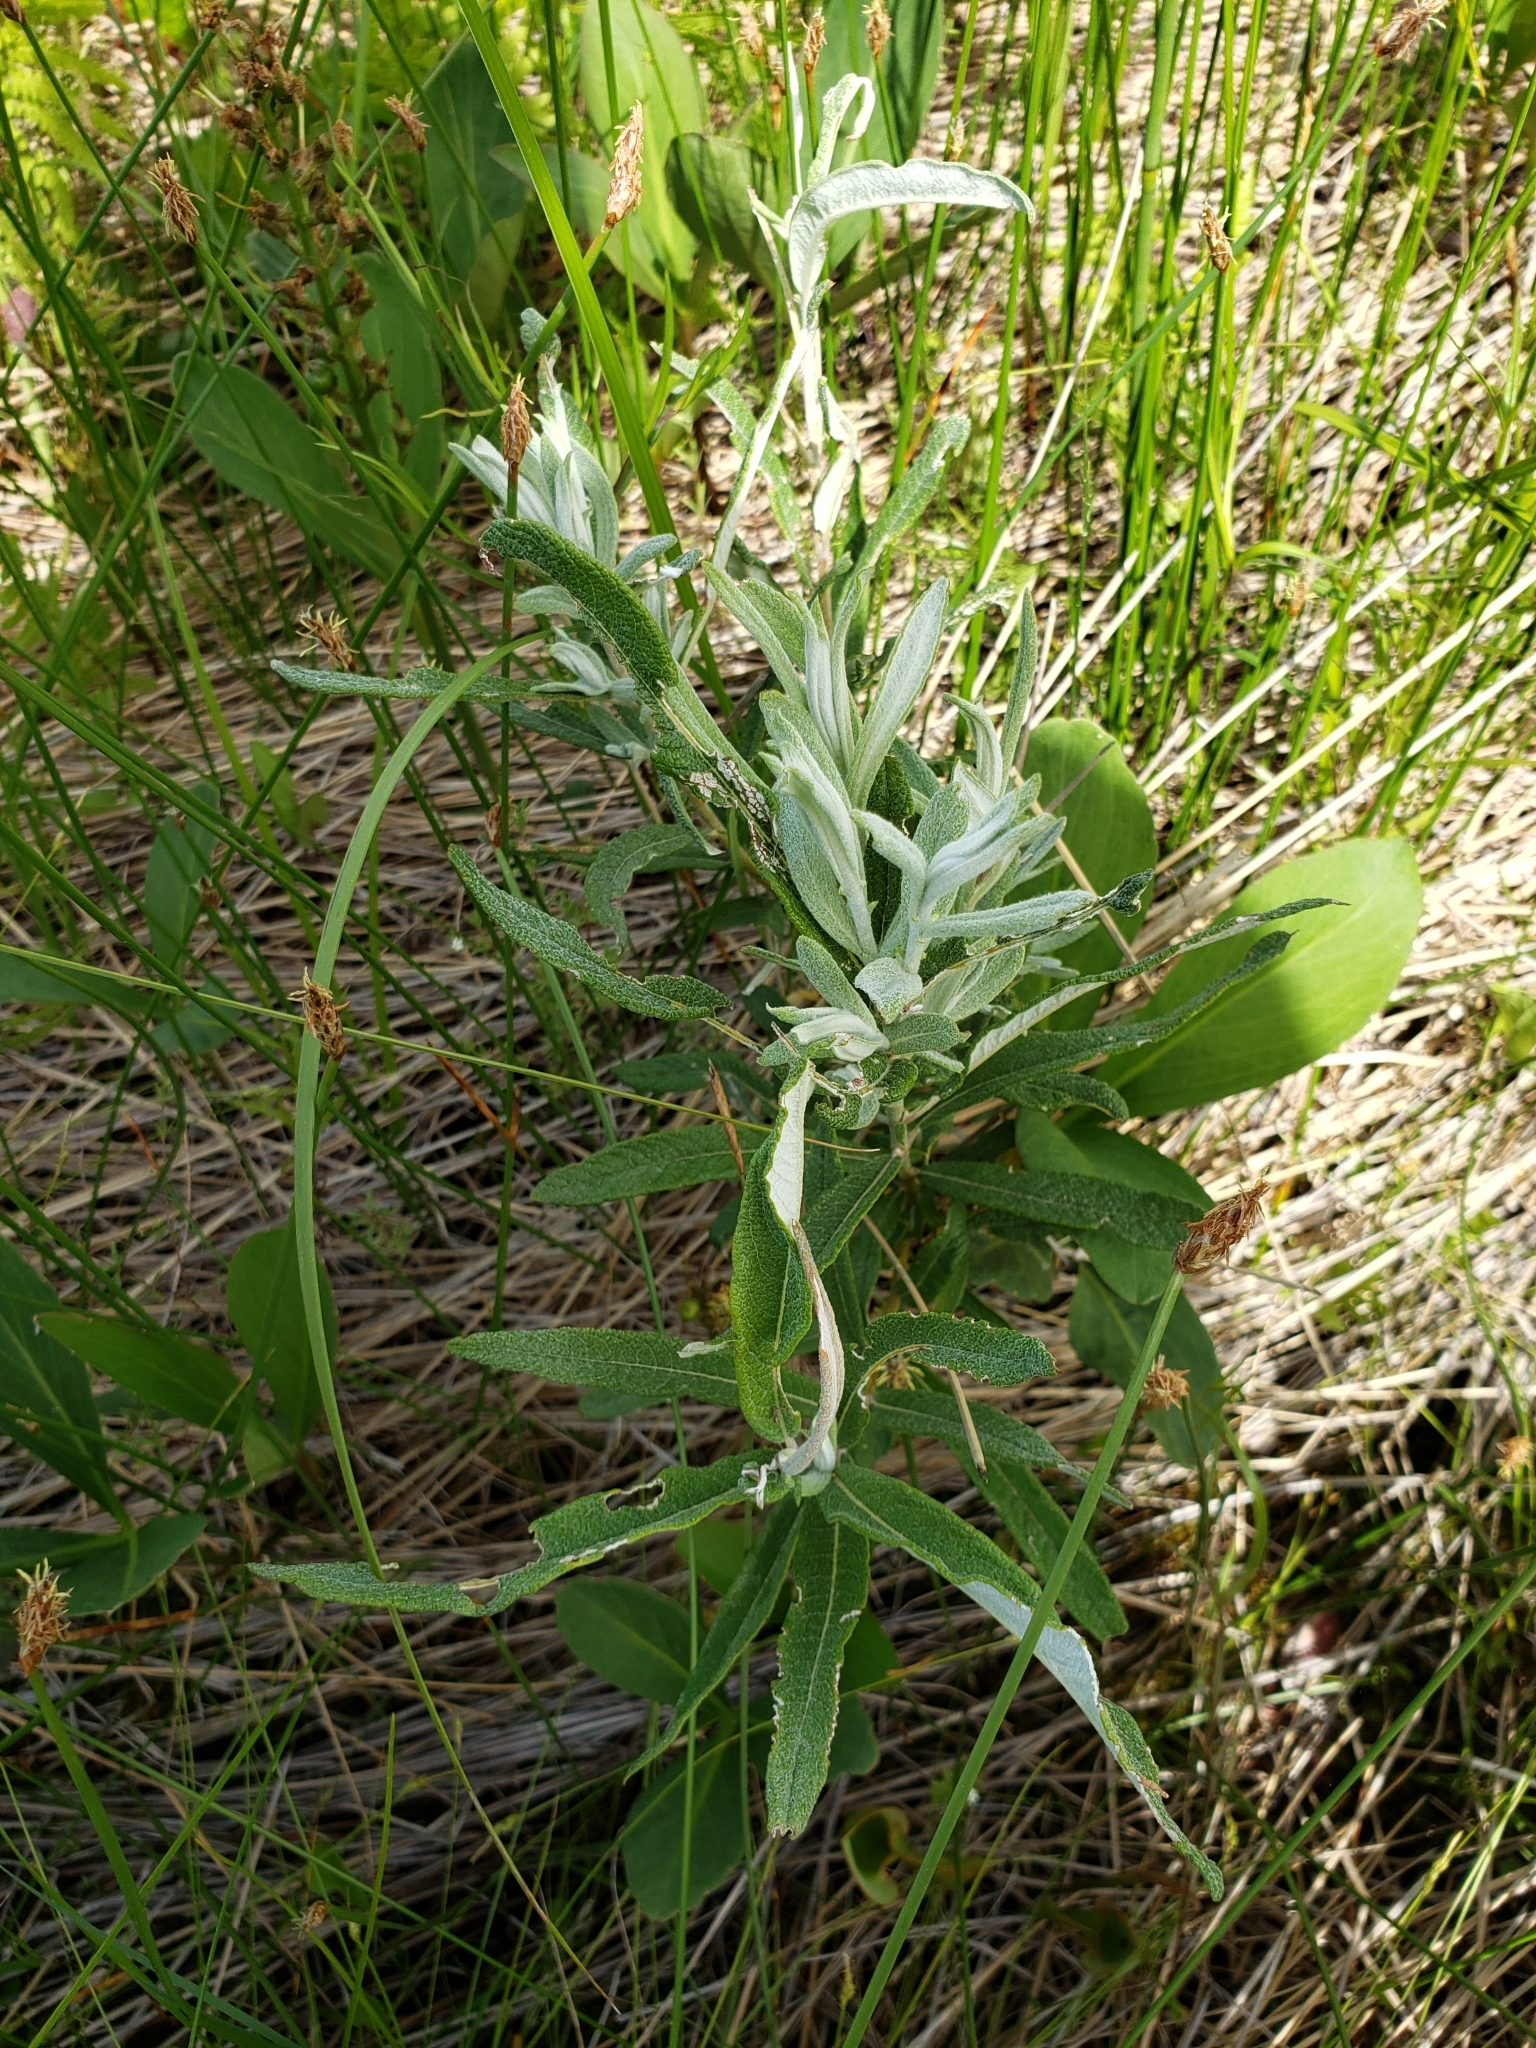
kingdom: Plantae
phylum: Tracheophyta
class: Magnoliopsida
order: Malpighiales
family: Salicaceae
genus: Salix
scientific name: Salix candida
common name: Hoary willow
